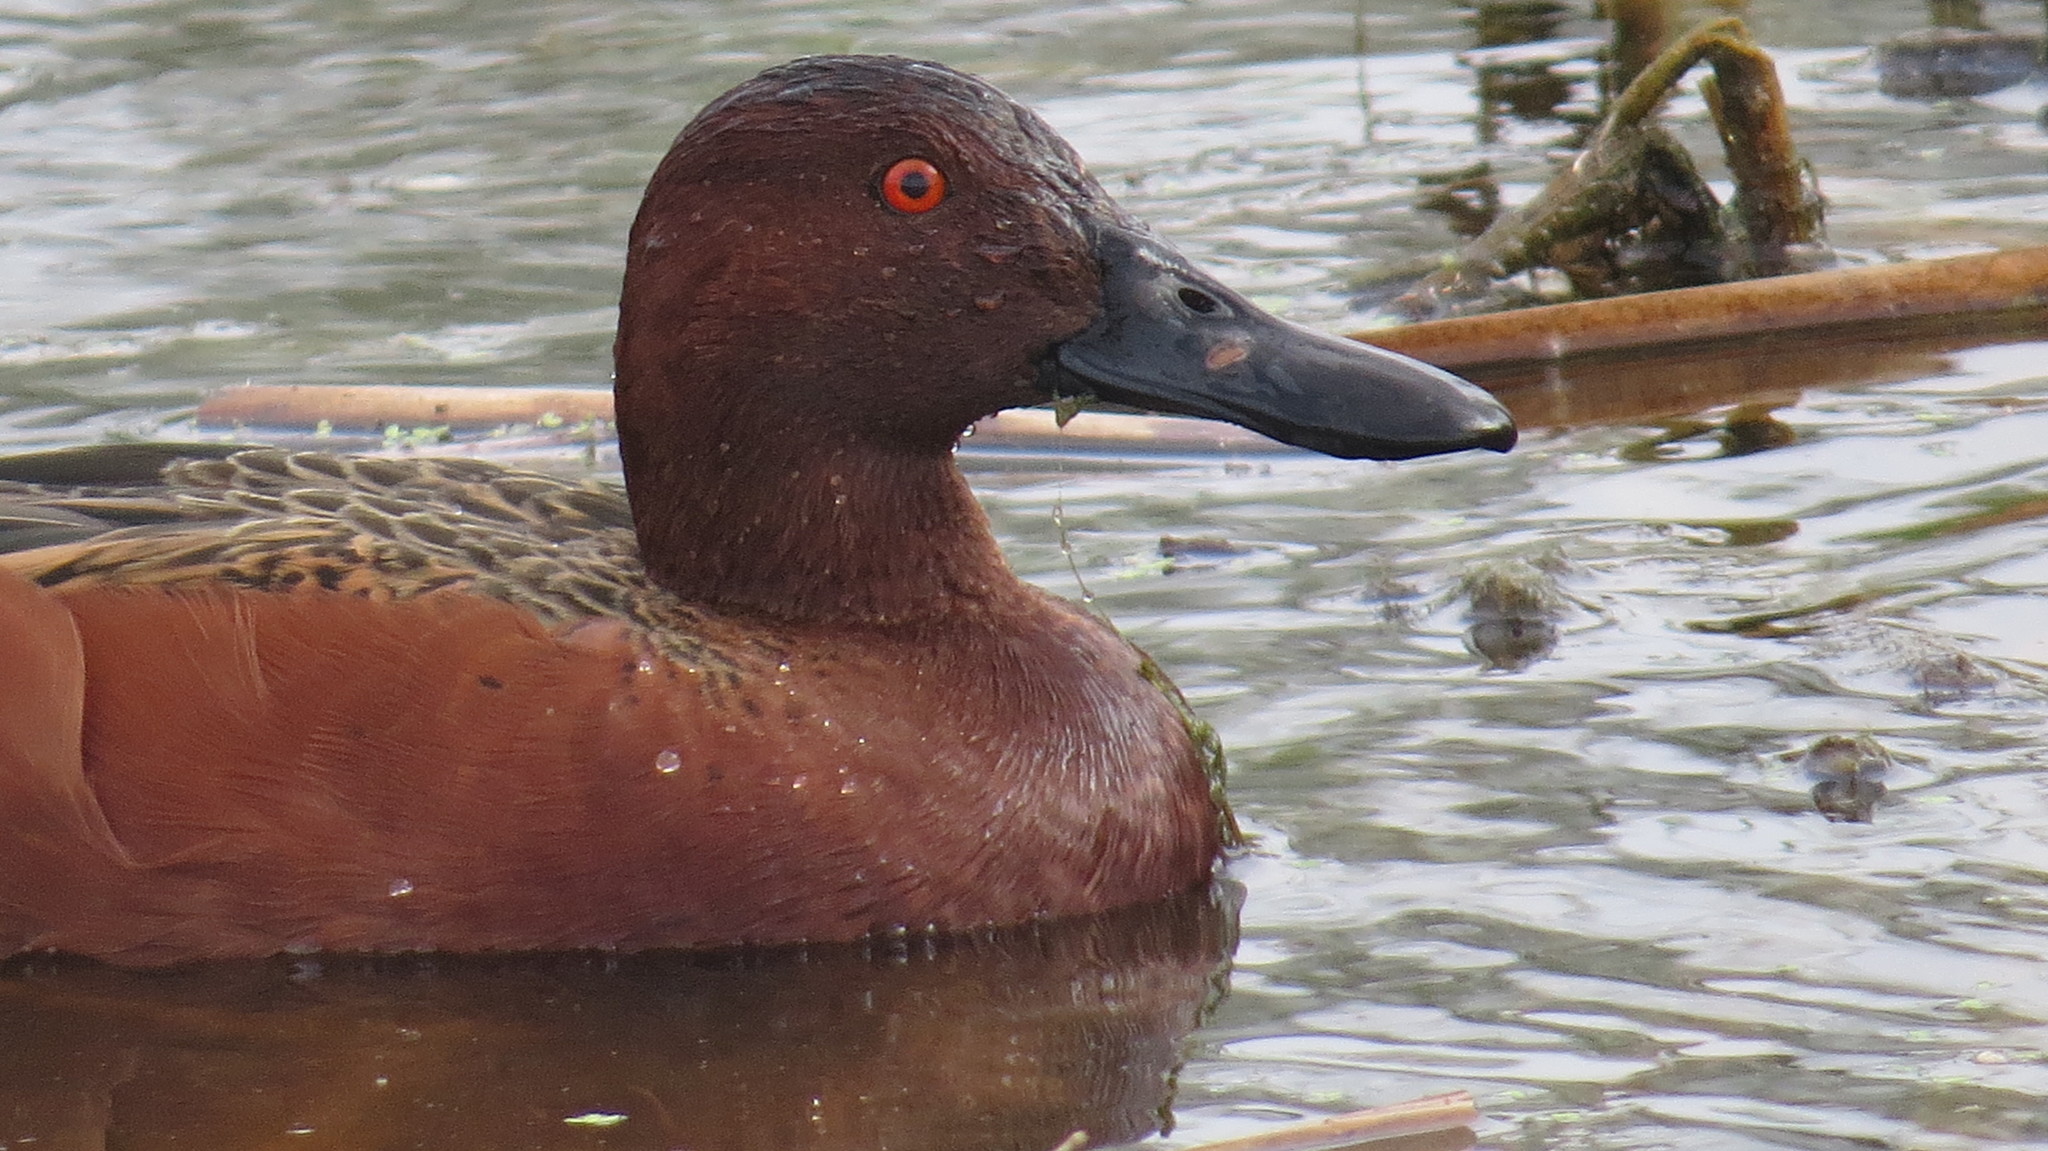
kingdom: Animalia
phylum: Chordata
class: Aves
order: Anseriformes
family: Anatidae
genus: Spatula
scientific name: Spatula cyanoptera
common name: Cinnamon teal
